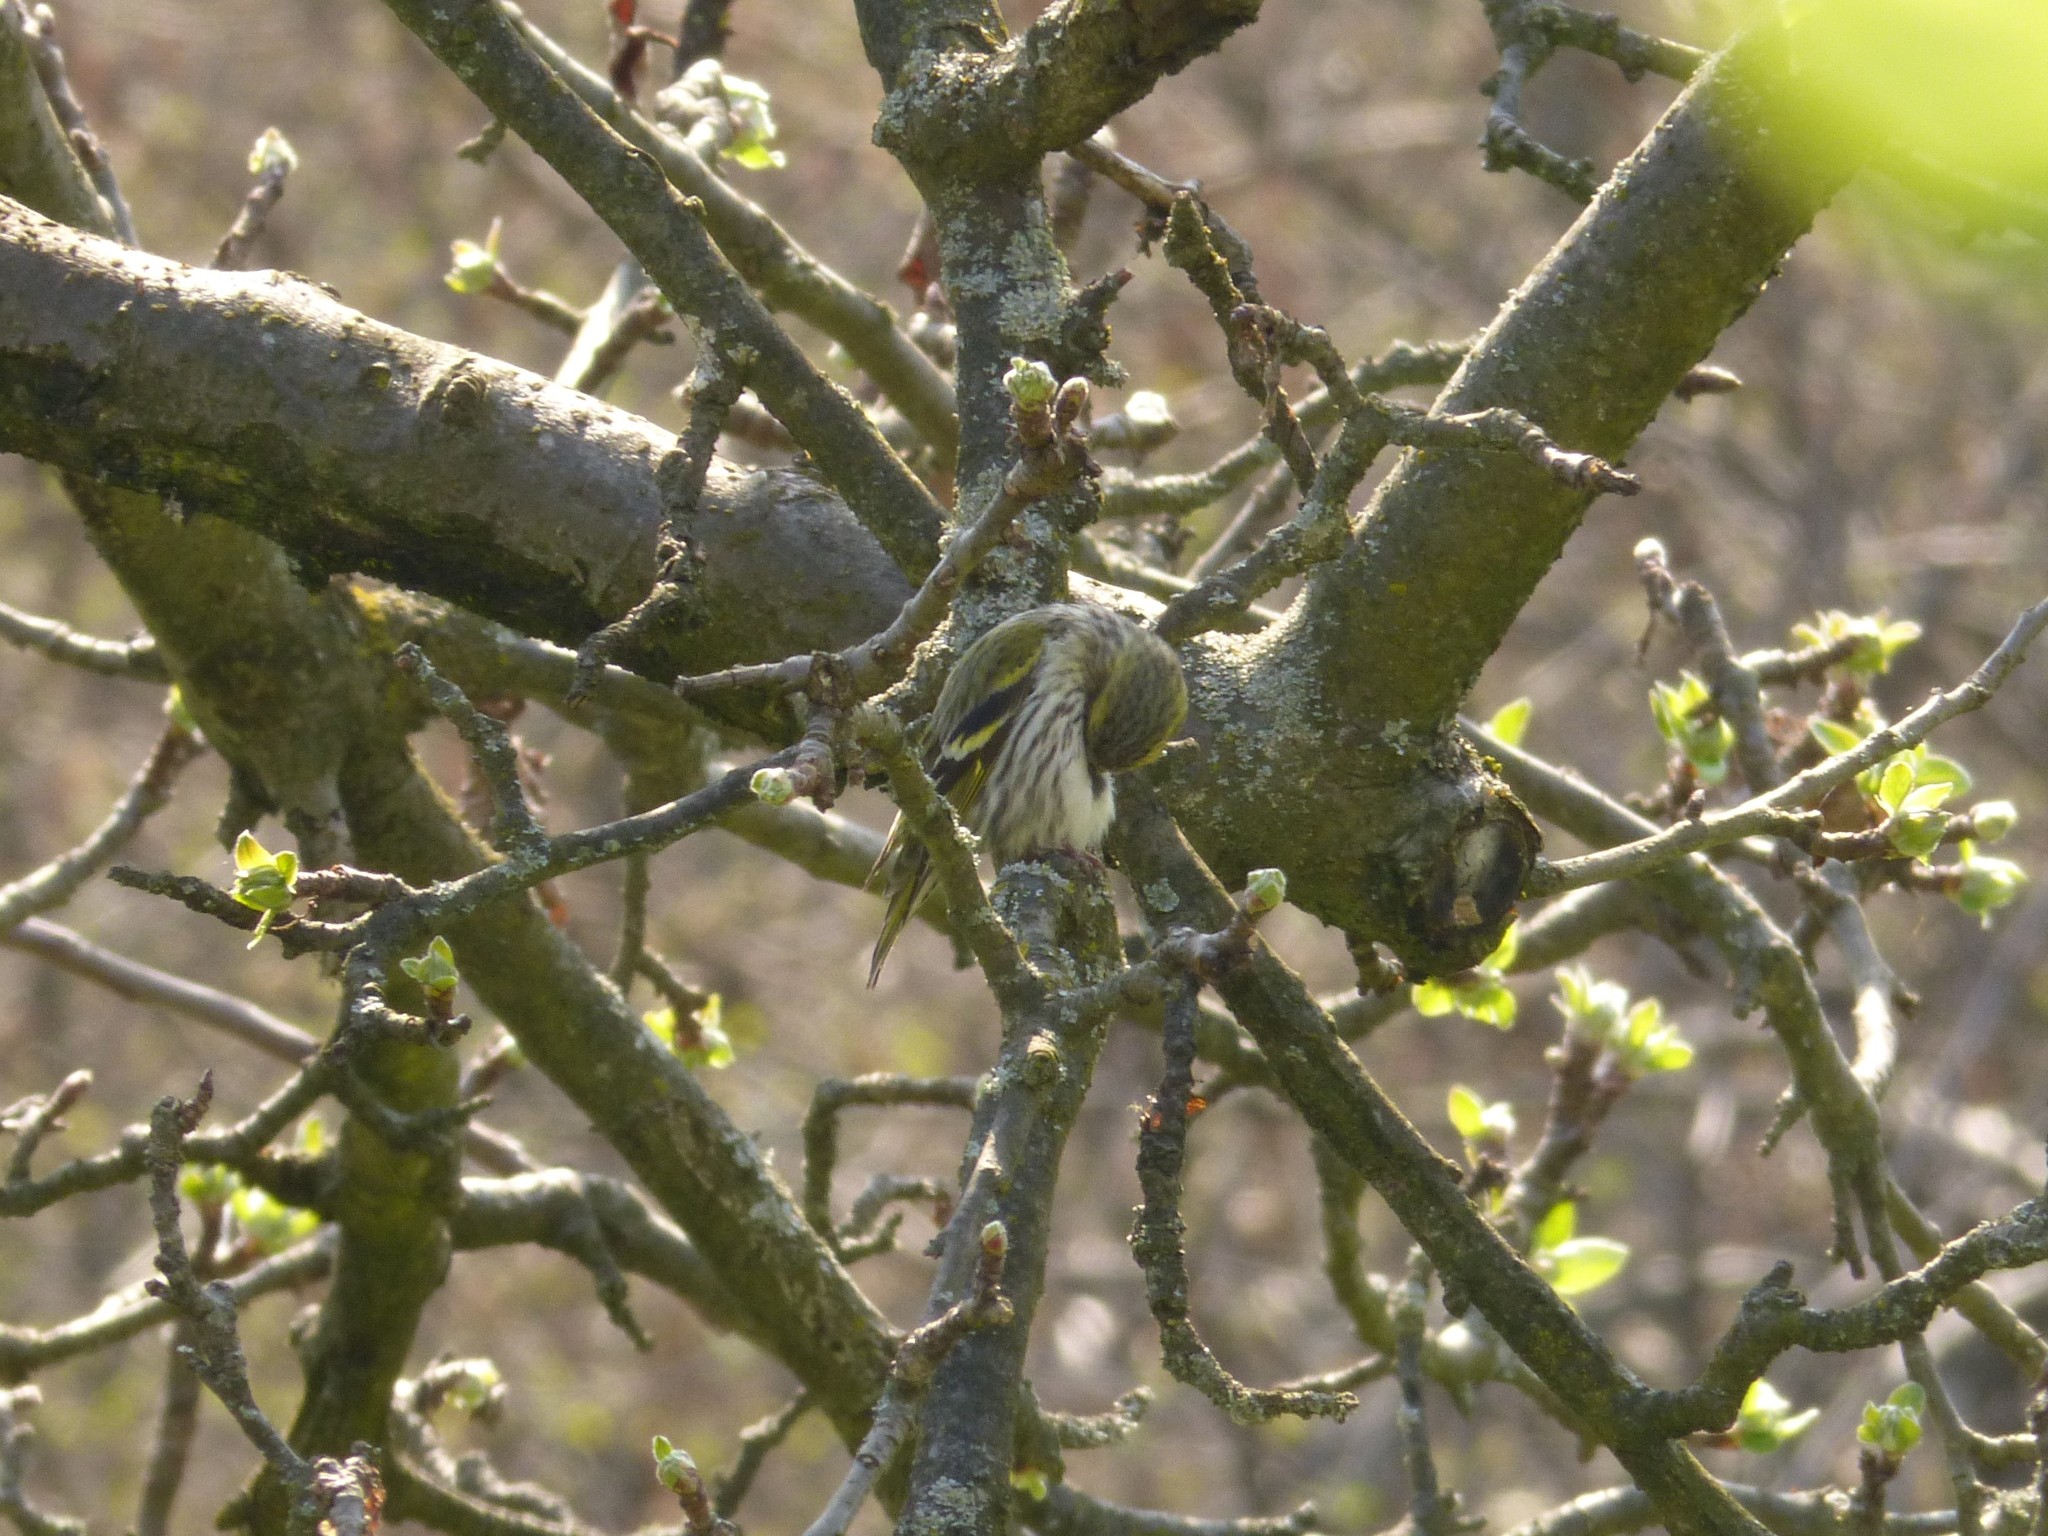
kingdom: Animalia
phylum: Chordata
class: Aves
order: Passeriformes
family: Fringillidae
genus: Spinus
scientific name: Spinus spinus
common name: Eurasian siskin
